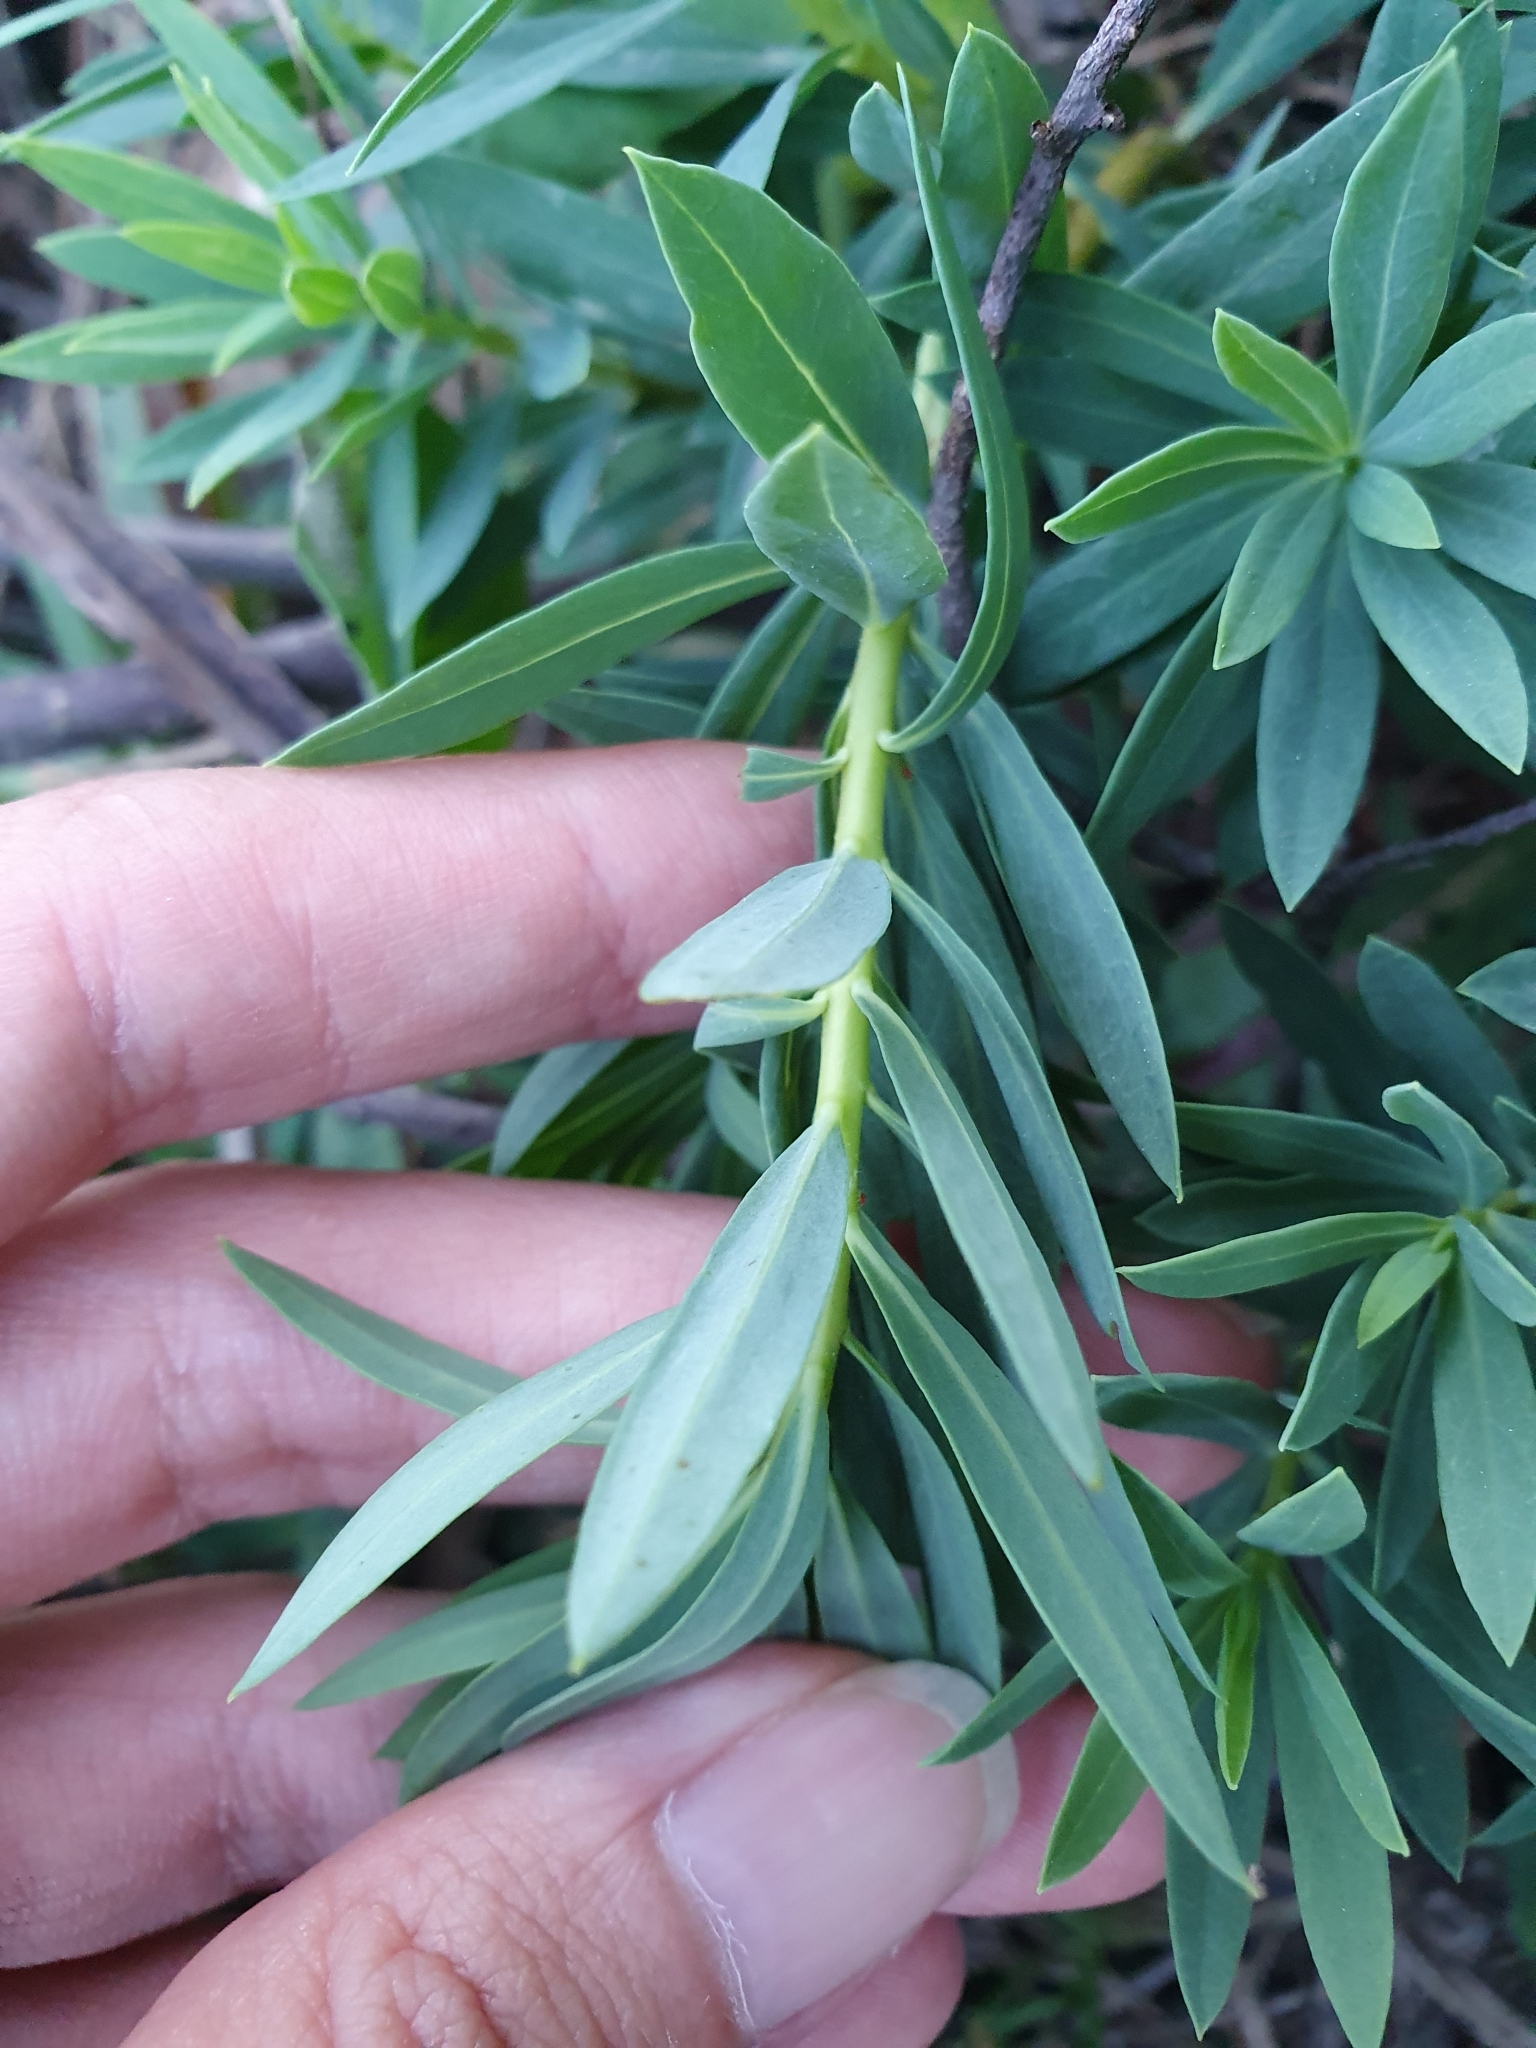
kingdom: Plantae
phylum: Tracheophyta
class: Magnoliopsida
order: Malvales
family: Thymelaeaceae
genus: Daphne
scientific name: Daphne gnidium
